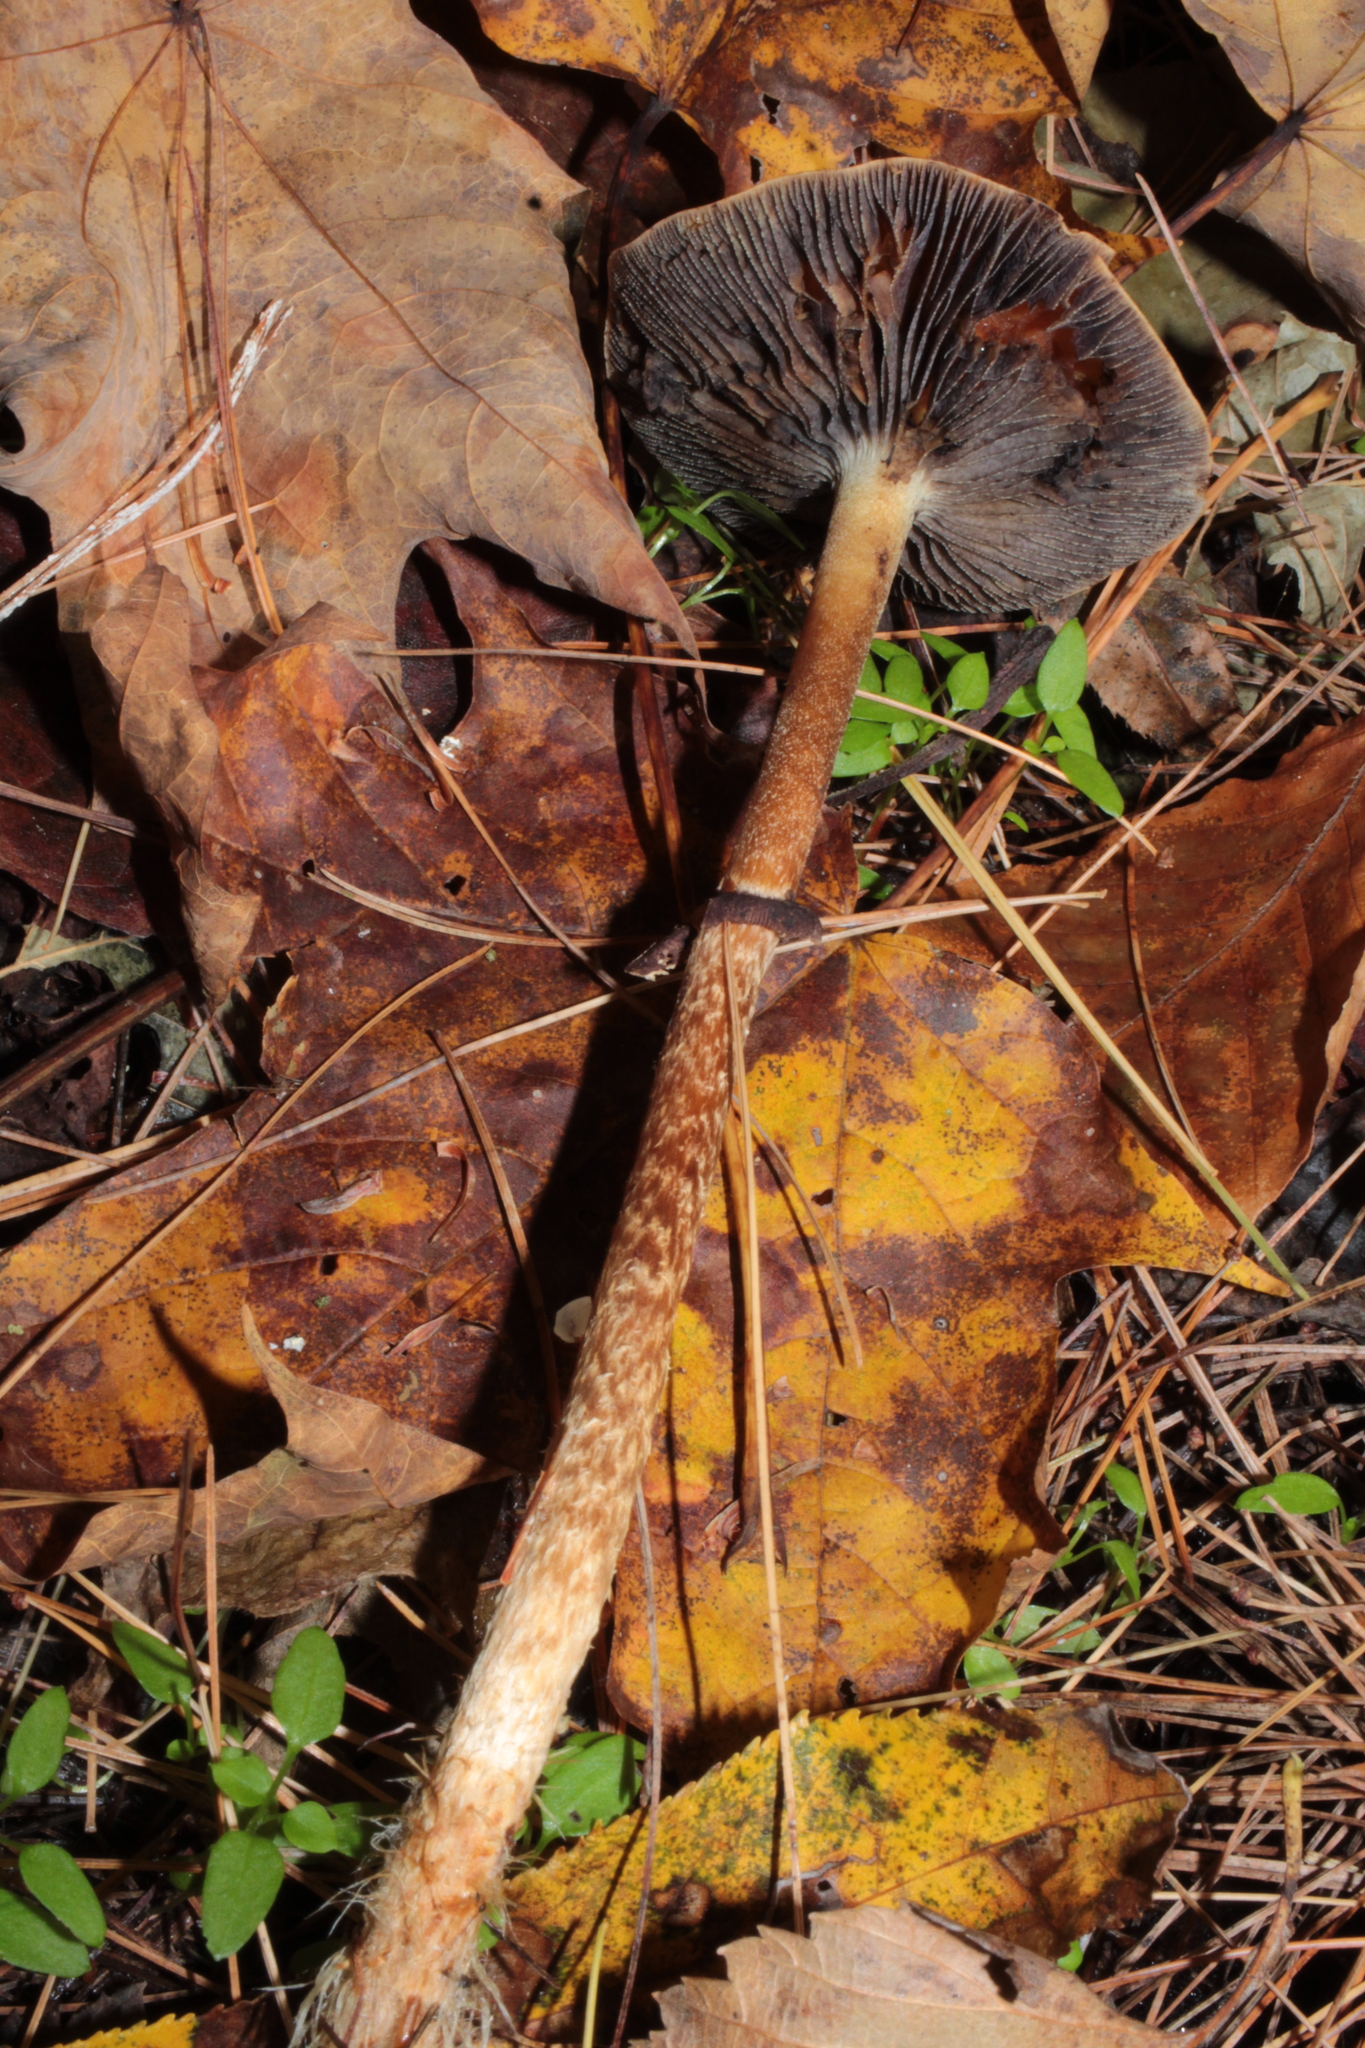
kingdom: Fungi
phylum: Basidiomycota
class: Agaricomycetes
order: Agaricales
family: Strophariaceae
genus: Leratiomyces
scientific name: Leratiomyces squamosus
